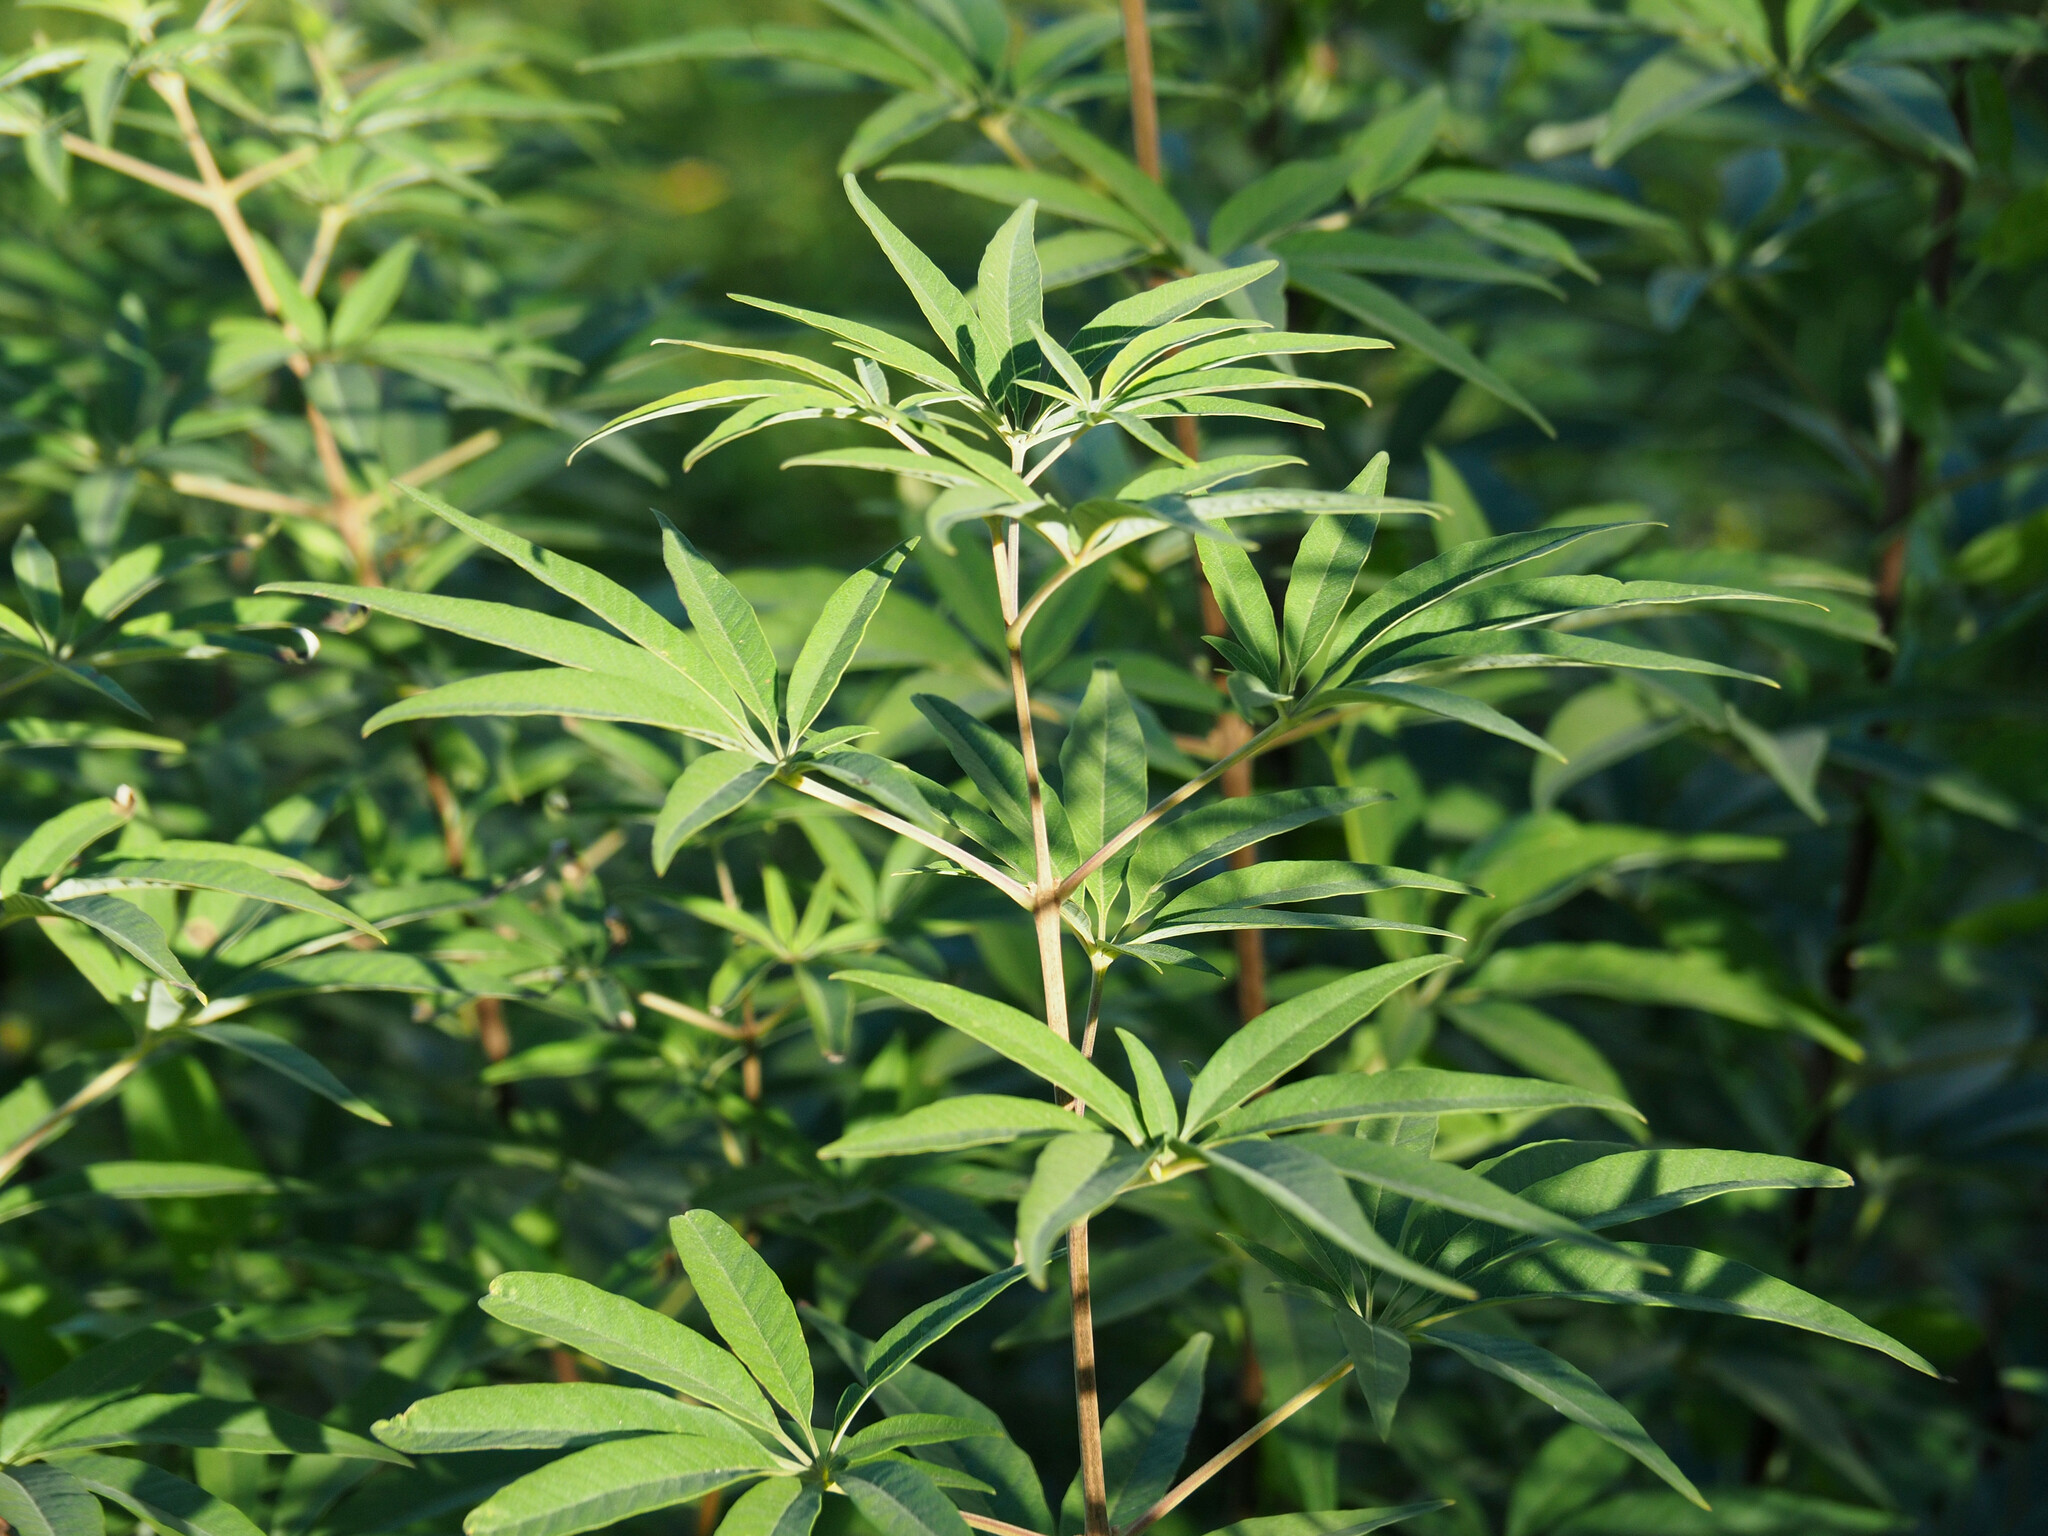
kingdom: Plantae
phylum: Tracheophyta
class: Magnoliopsida
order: Lamiales
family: Lamiaceae
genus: Vitex
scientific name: Vitex agnus-castus
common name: Chasteberry
